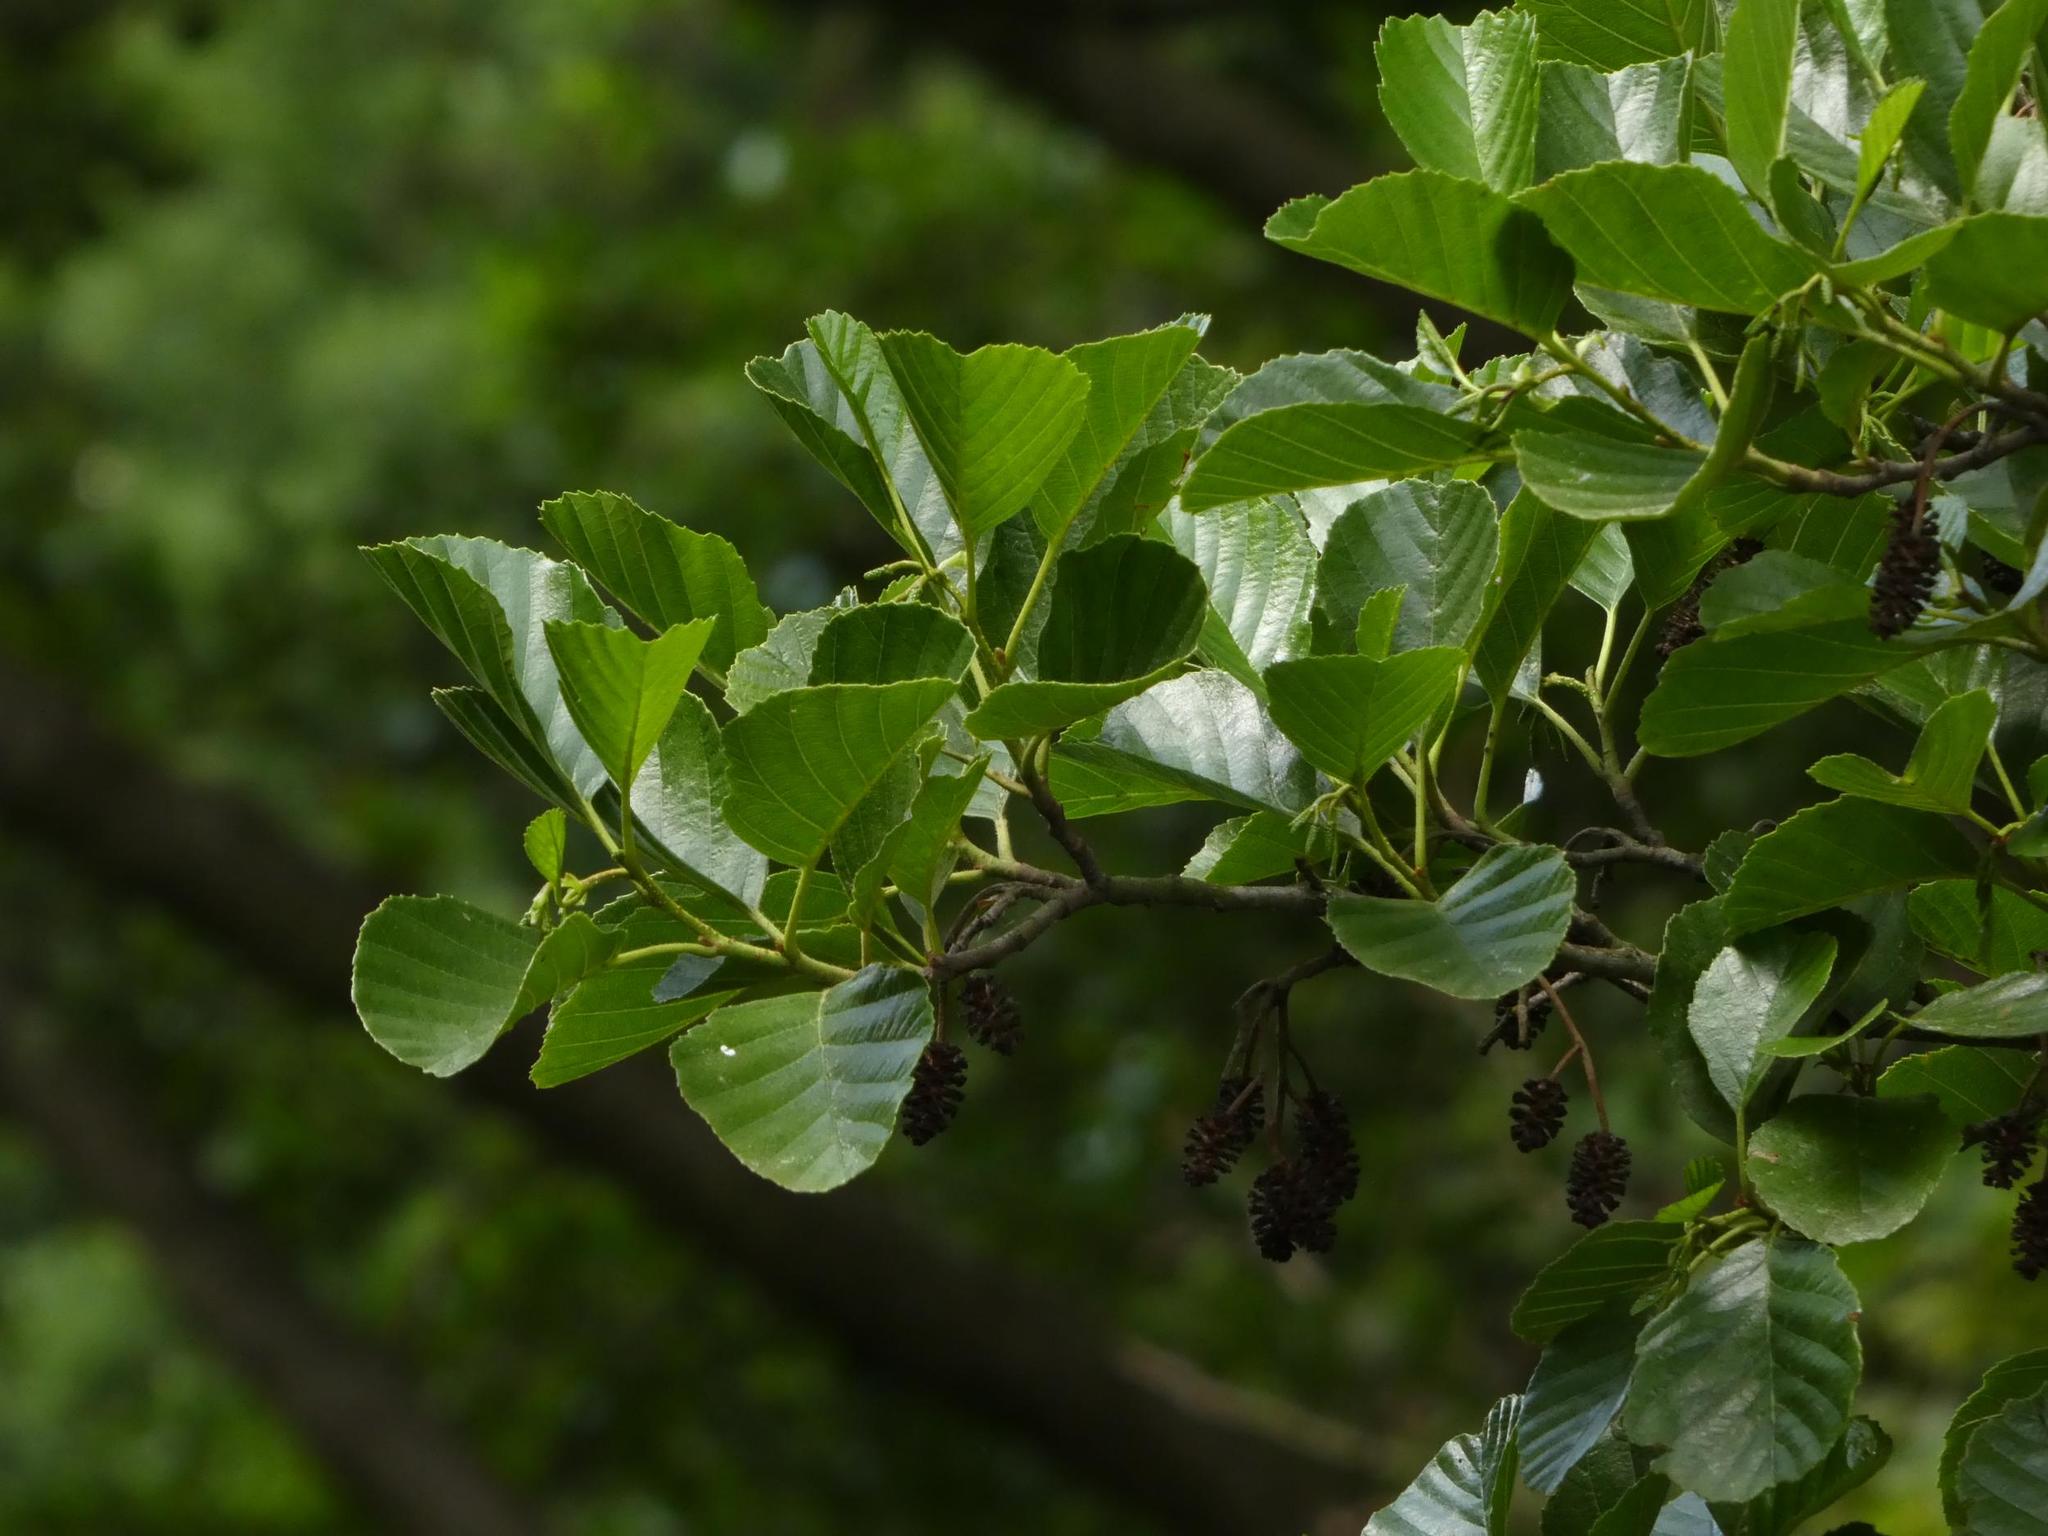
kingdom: Plantae
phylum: Tracheophyta
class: Magnoliopsida
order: Fagales
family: Betulaceae
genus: Alnus
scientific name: Alnus glutinosa
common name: Black alder
